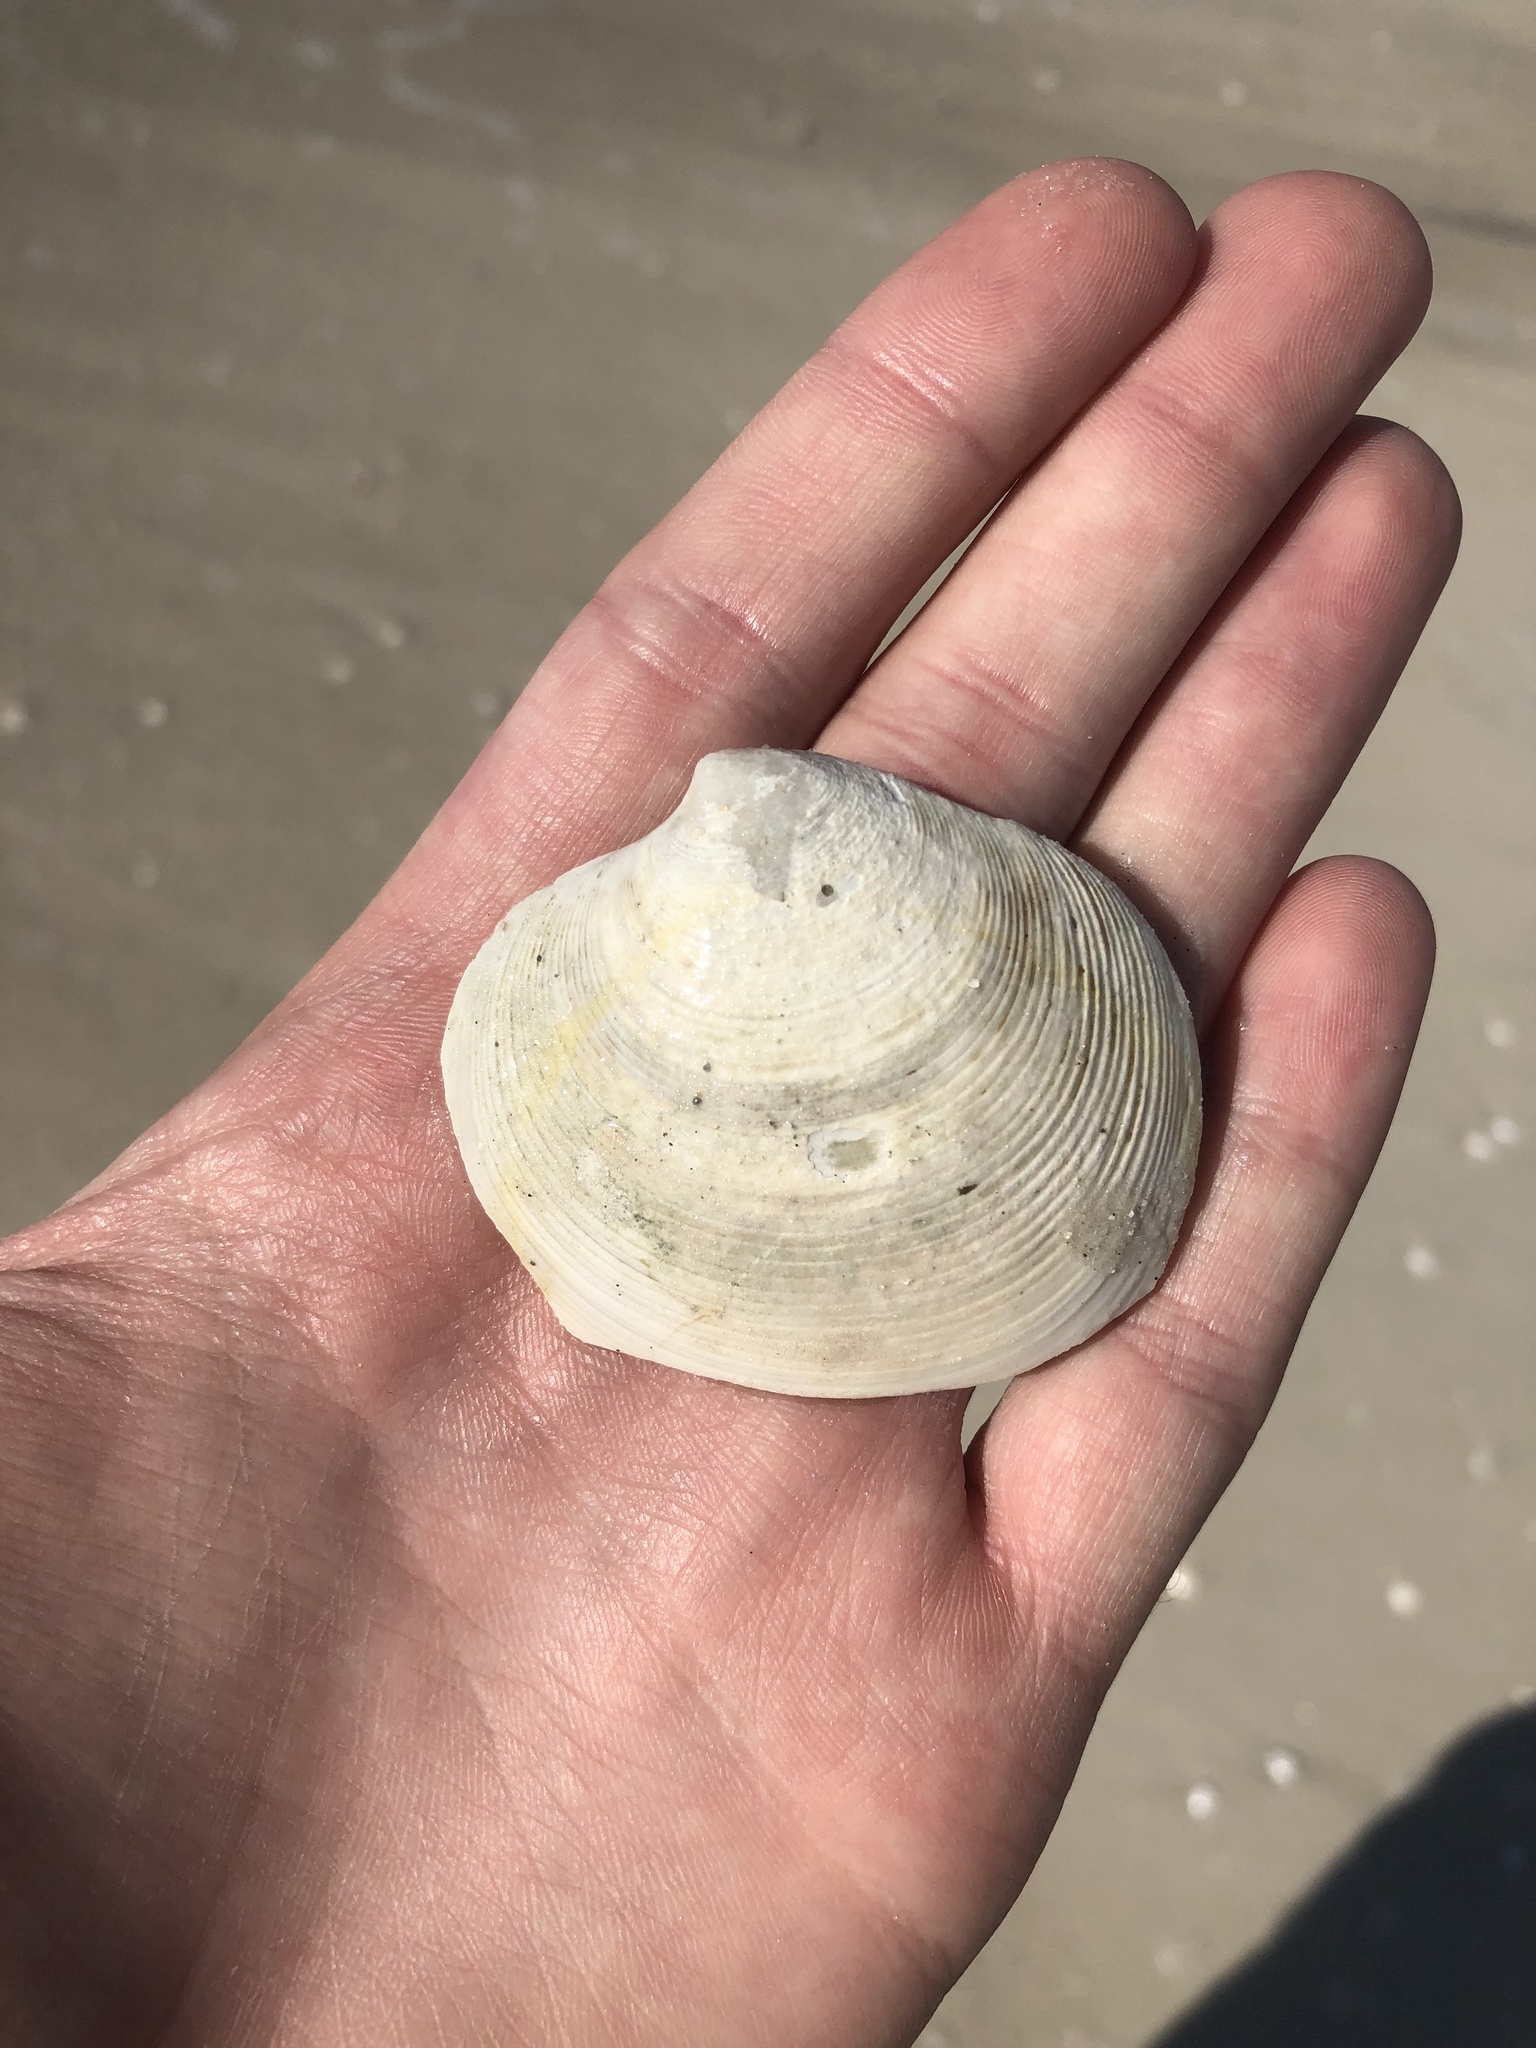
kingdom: Animalia
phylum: Mollusca
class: Bivalvia
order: Venerida
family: Veneridae
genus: Dosinia
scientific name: Dosinia concentrica
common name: Elegant dosinia
